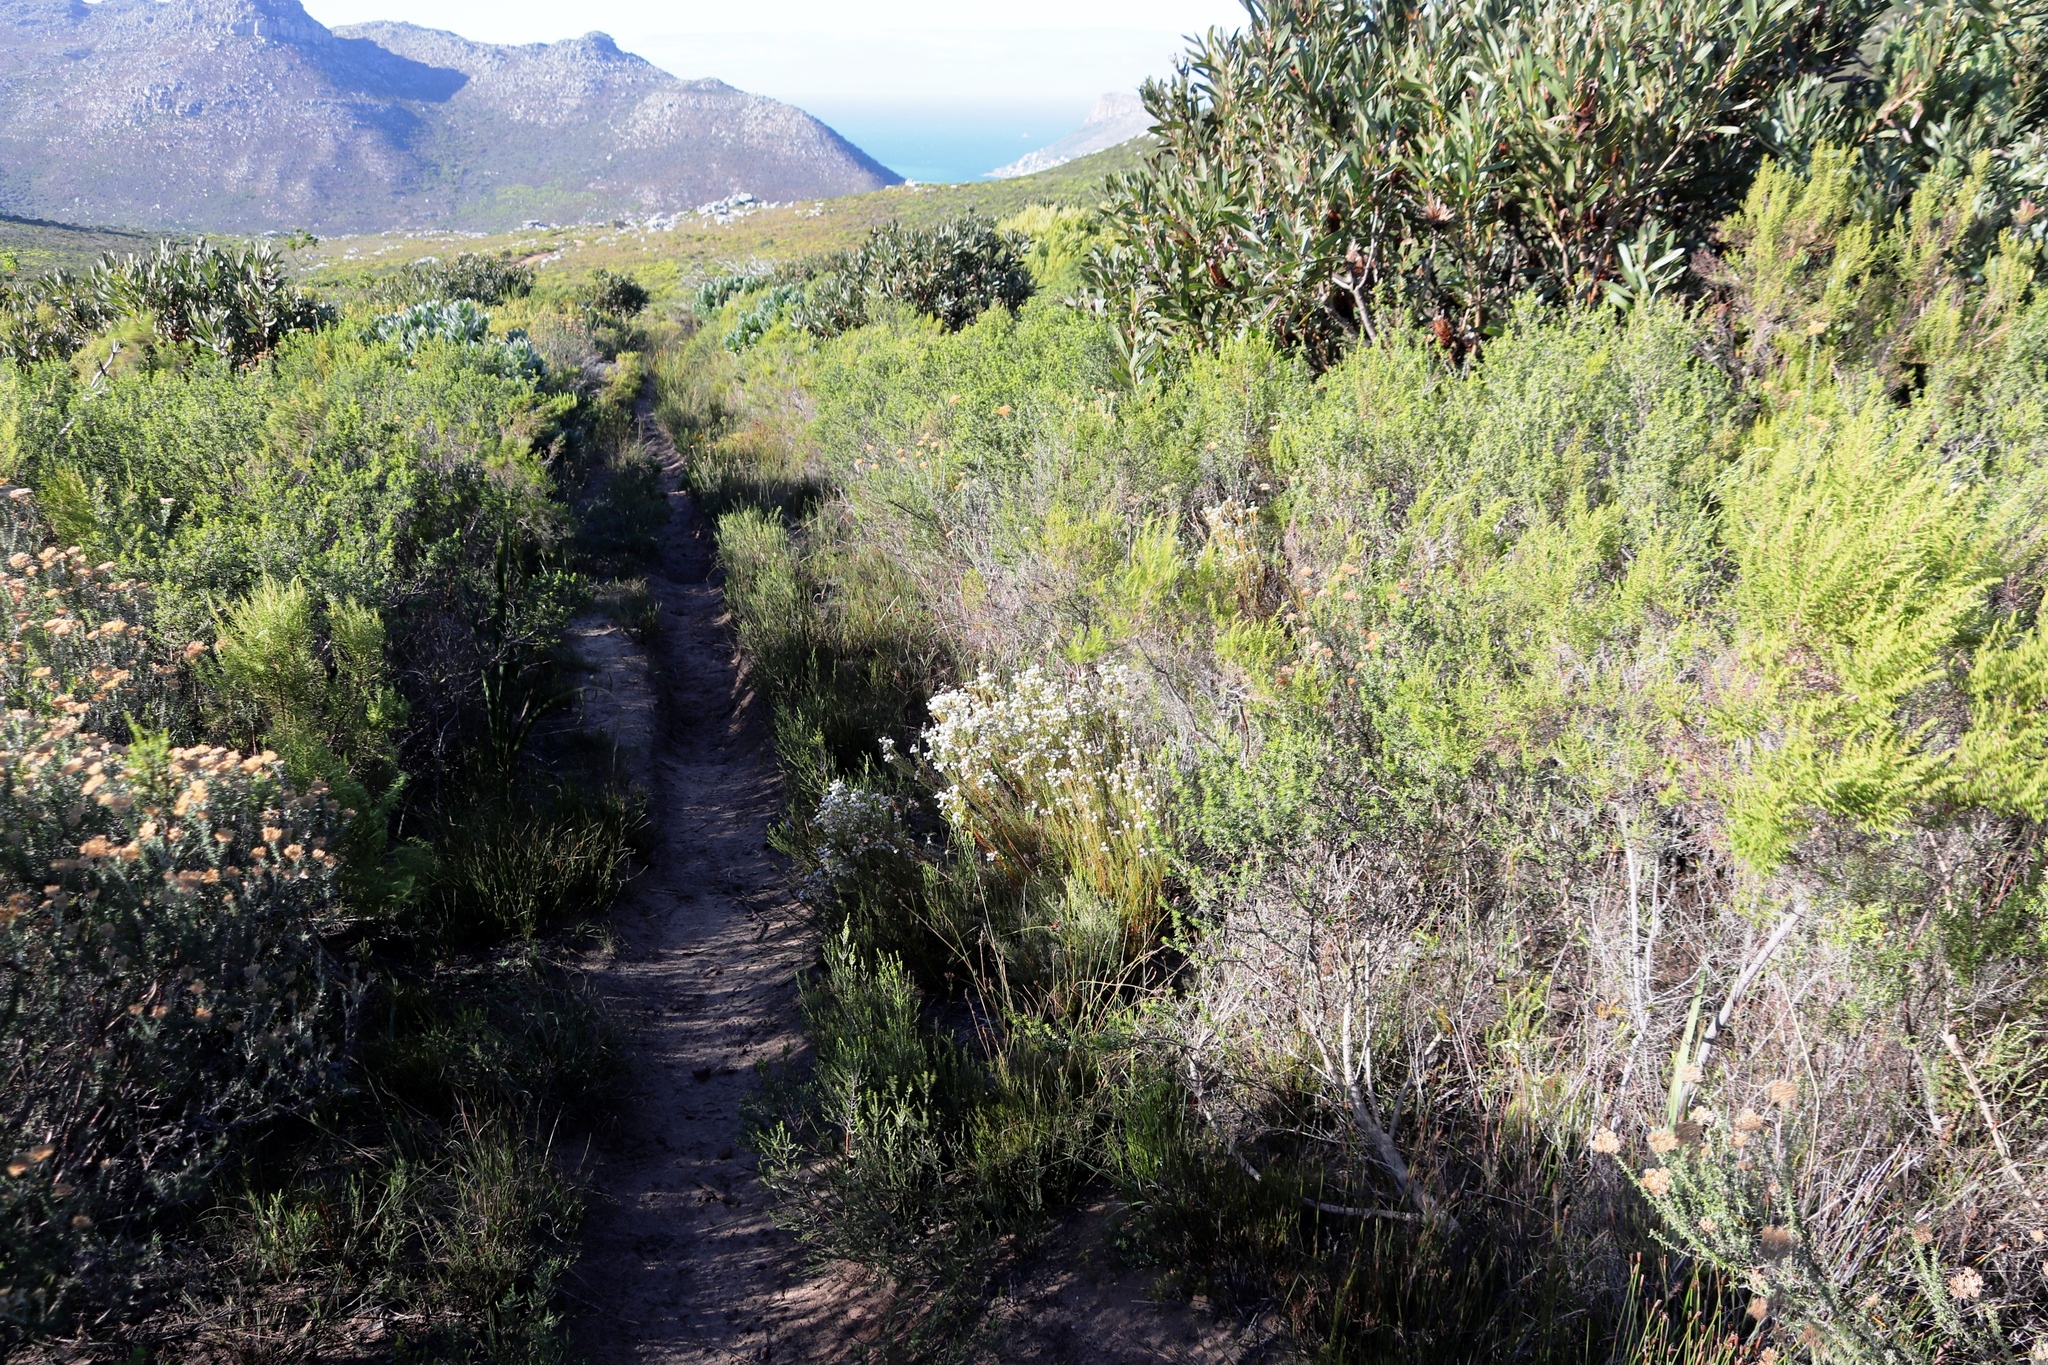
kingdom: Plantae
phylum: Tracheophyta
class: Magnoliopsida
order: Bruniales
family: Bruniaceae
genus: Staavia
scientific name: Staavia radiata
